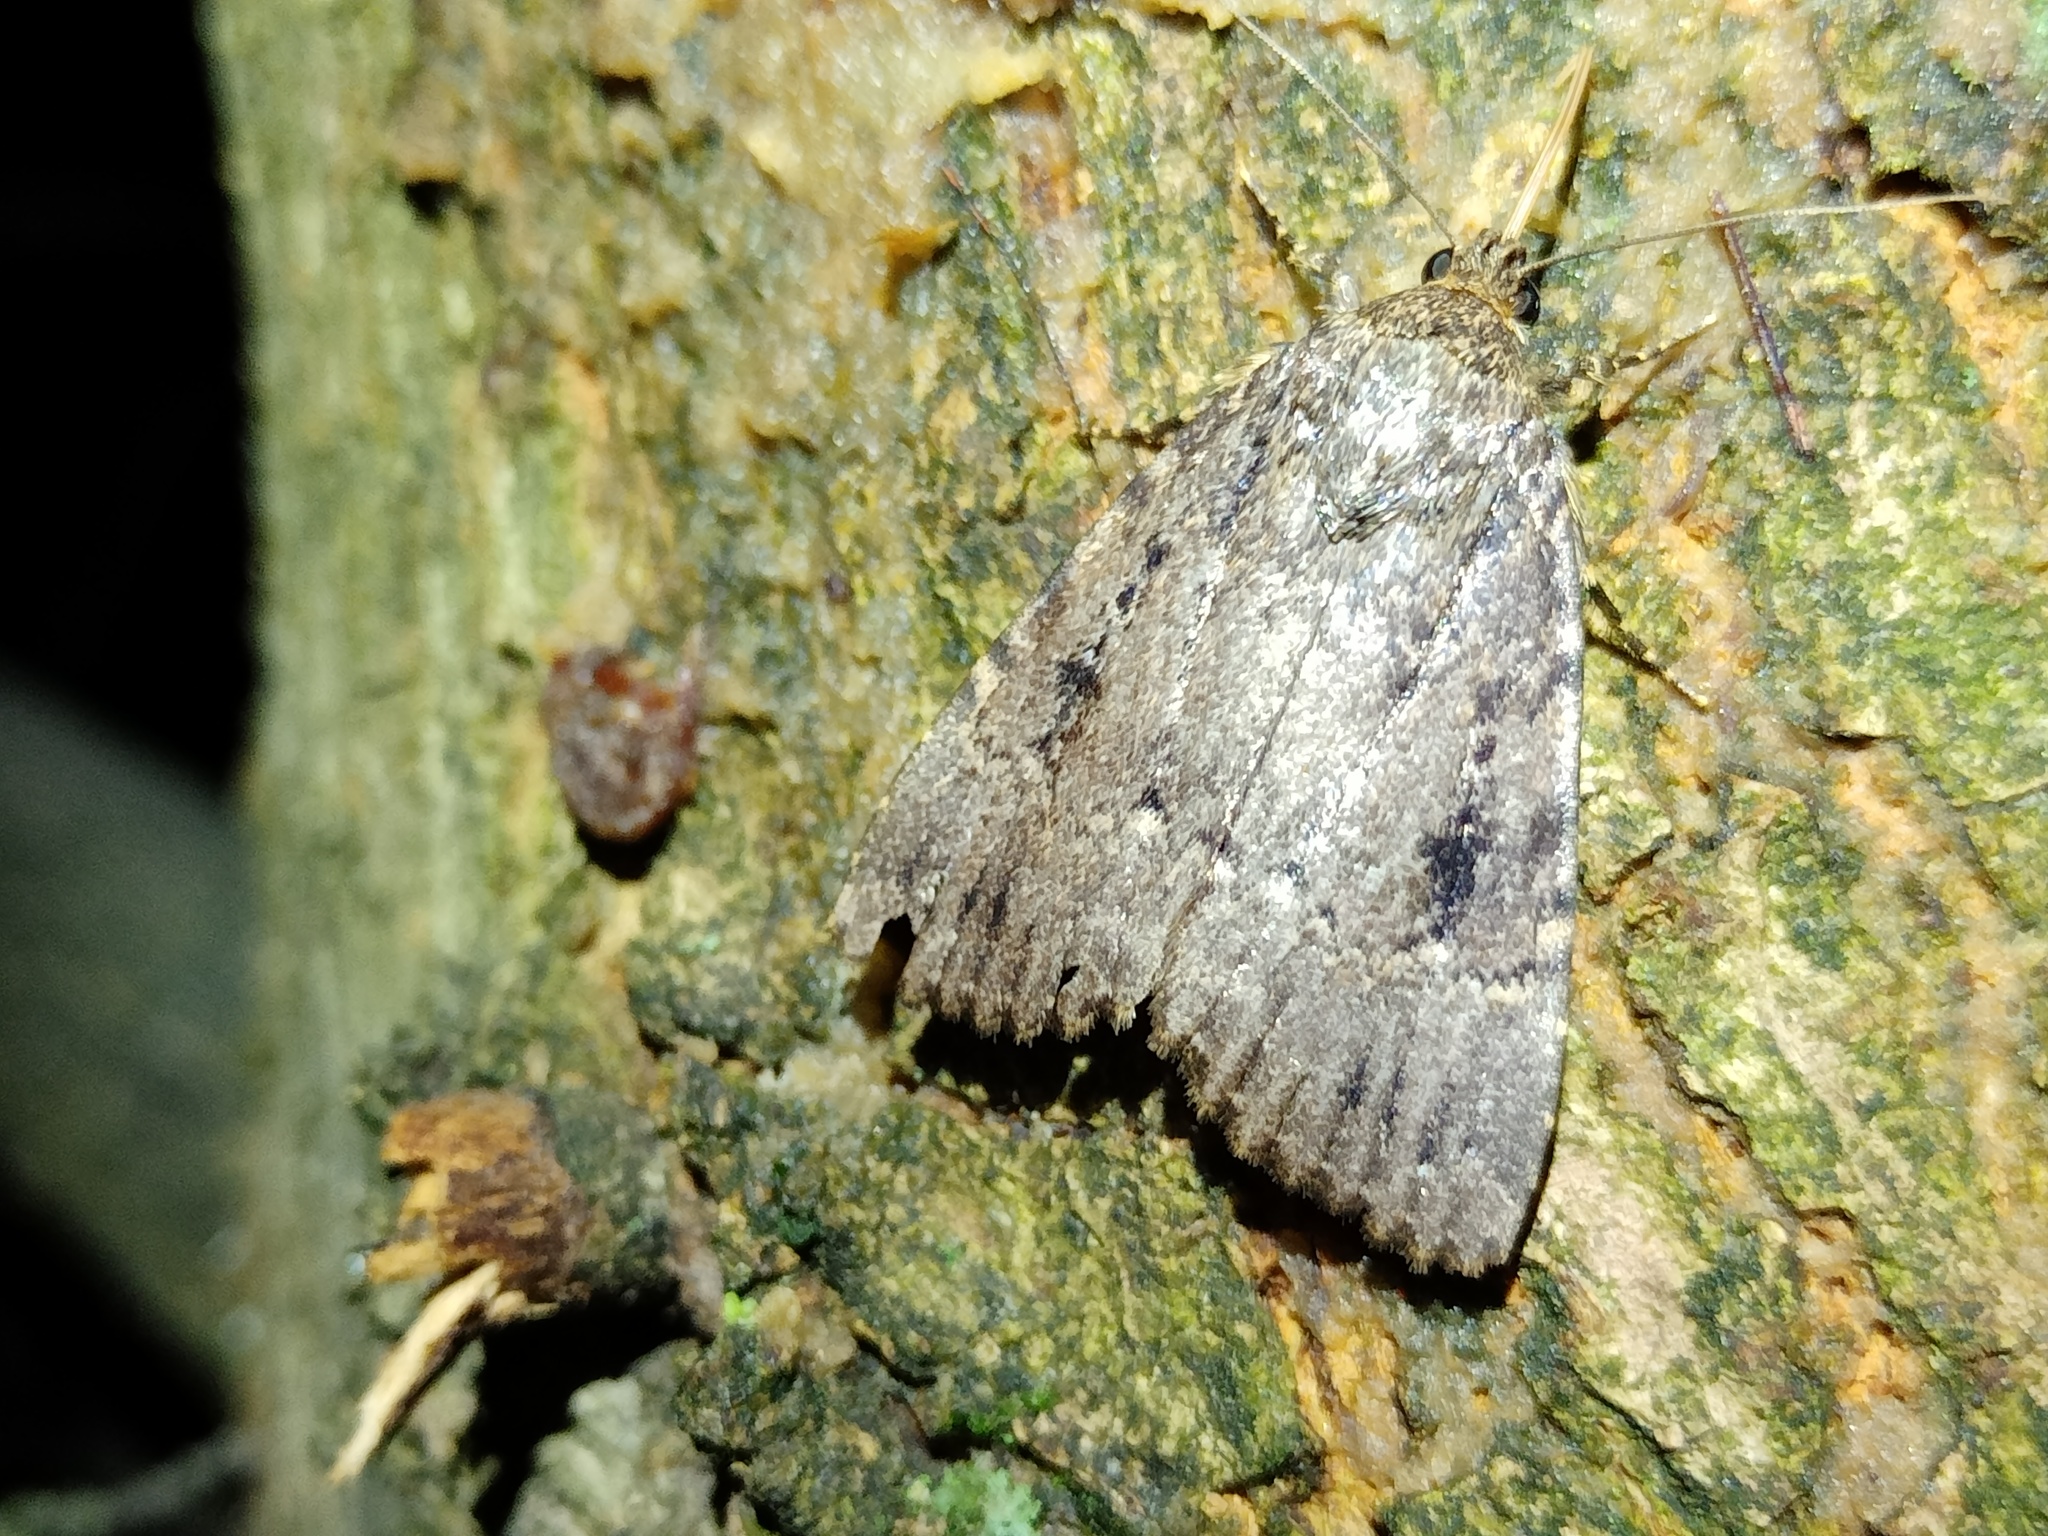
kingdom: Animalia
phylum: Arthropoda
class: Insecta
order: Lepidoptera
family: Noctuidae
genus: Amphipyra
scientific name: Amphipyra pyramidea
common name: Copper underwing
